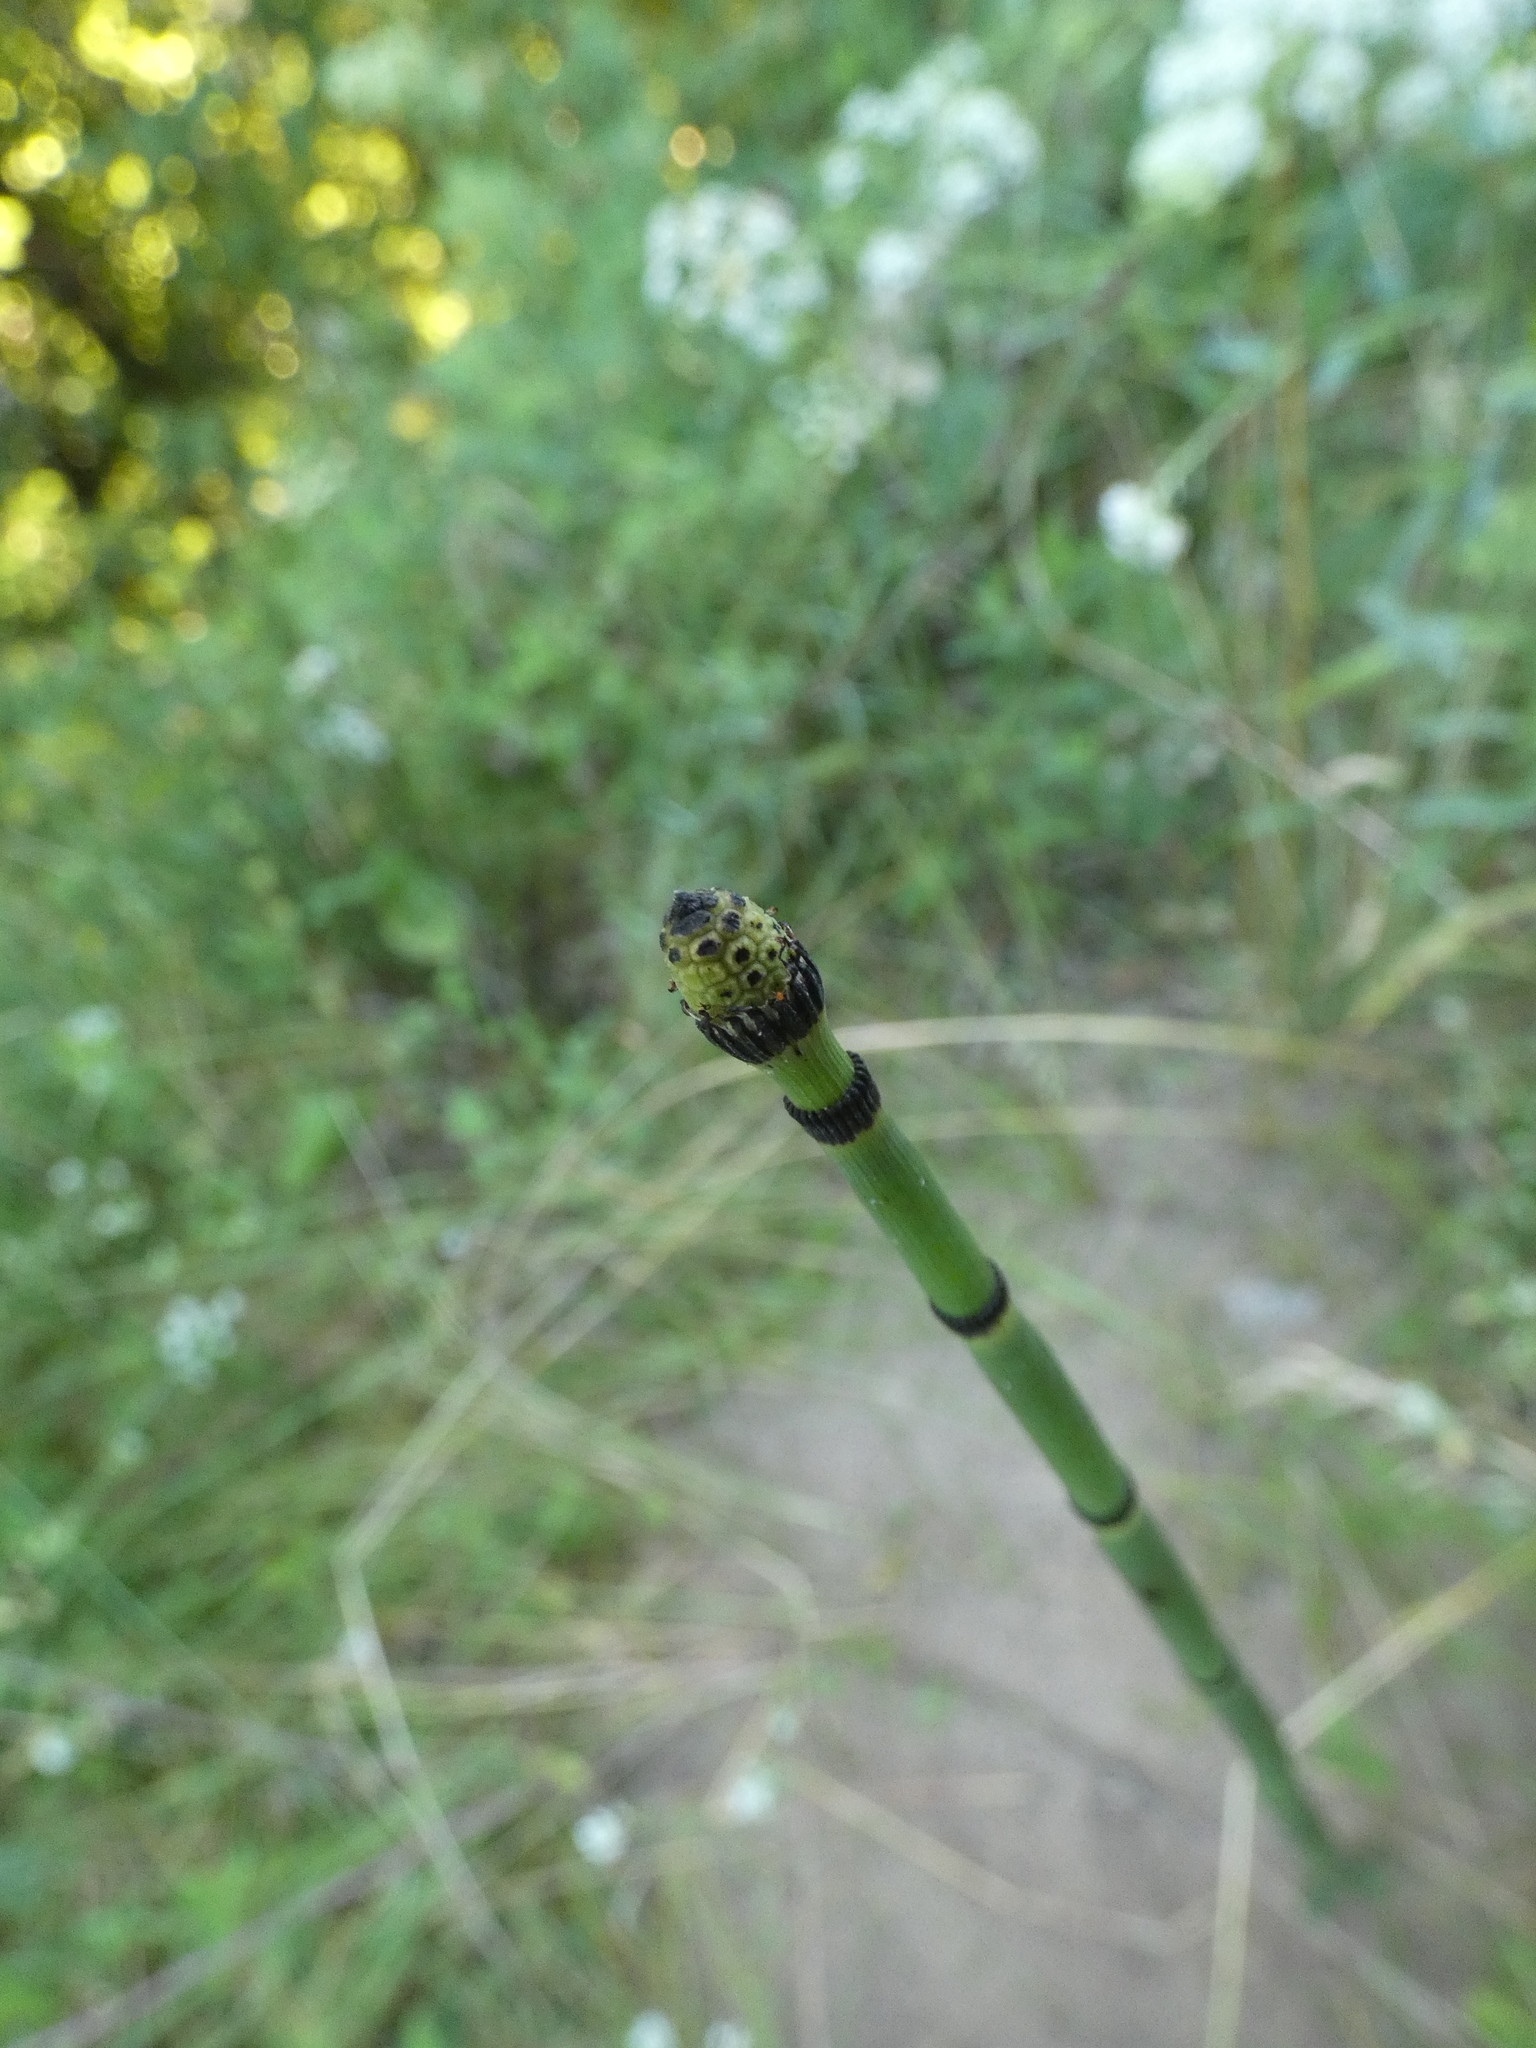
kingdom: Plantae
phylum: Tracheophyta
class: Polypodiopsida
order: Equisetales
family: Equisetaceae
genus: Equisetum
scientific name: Equisetum hyemale
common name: Rough horsetail
